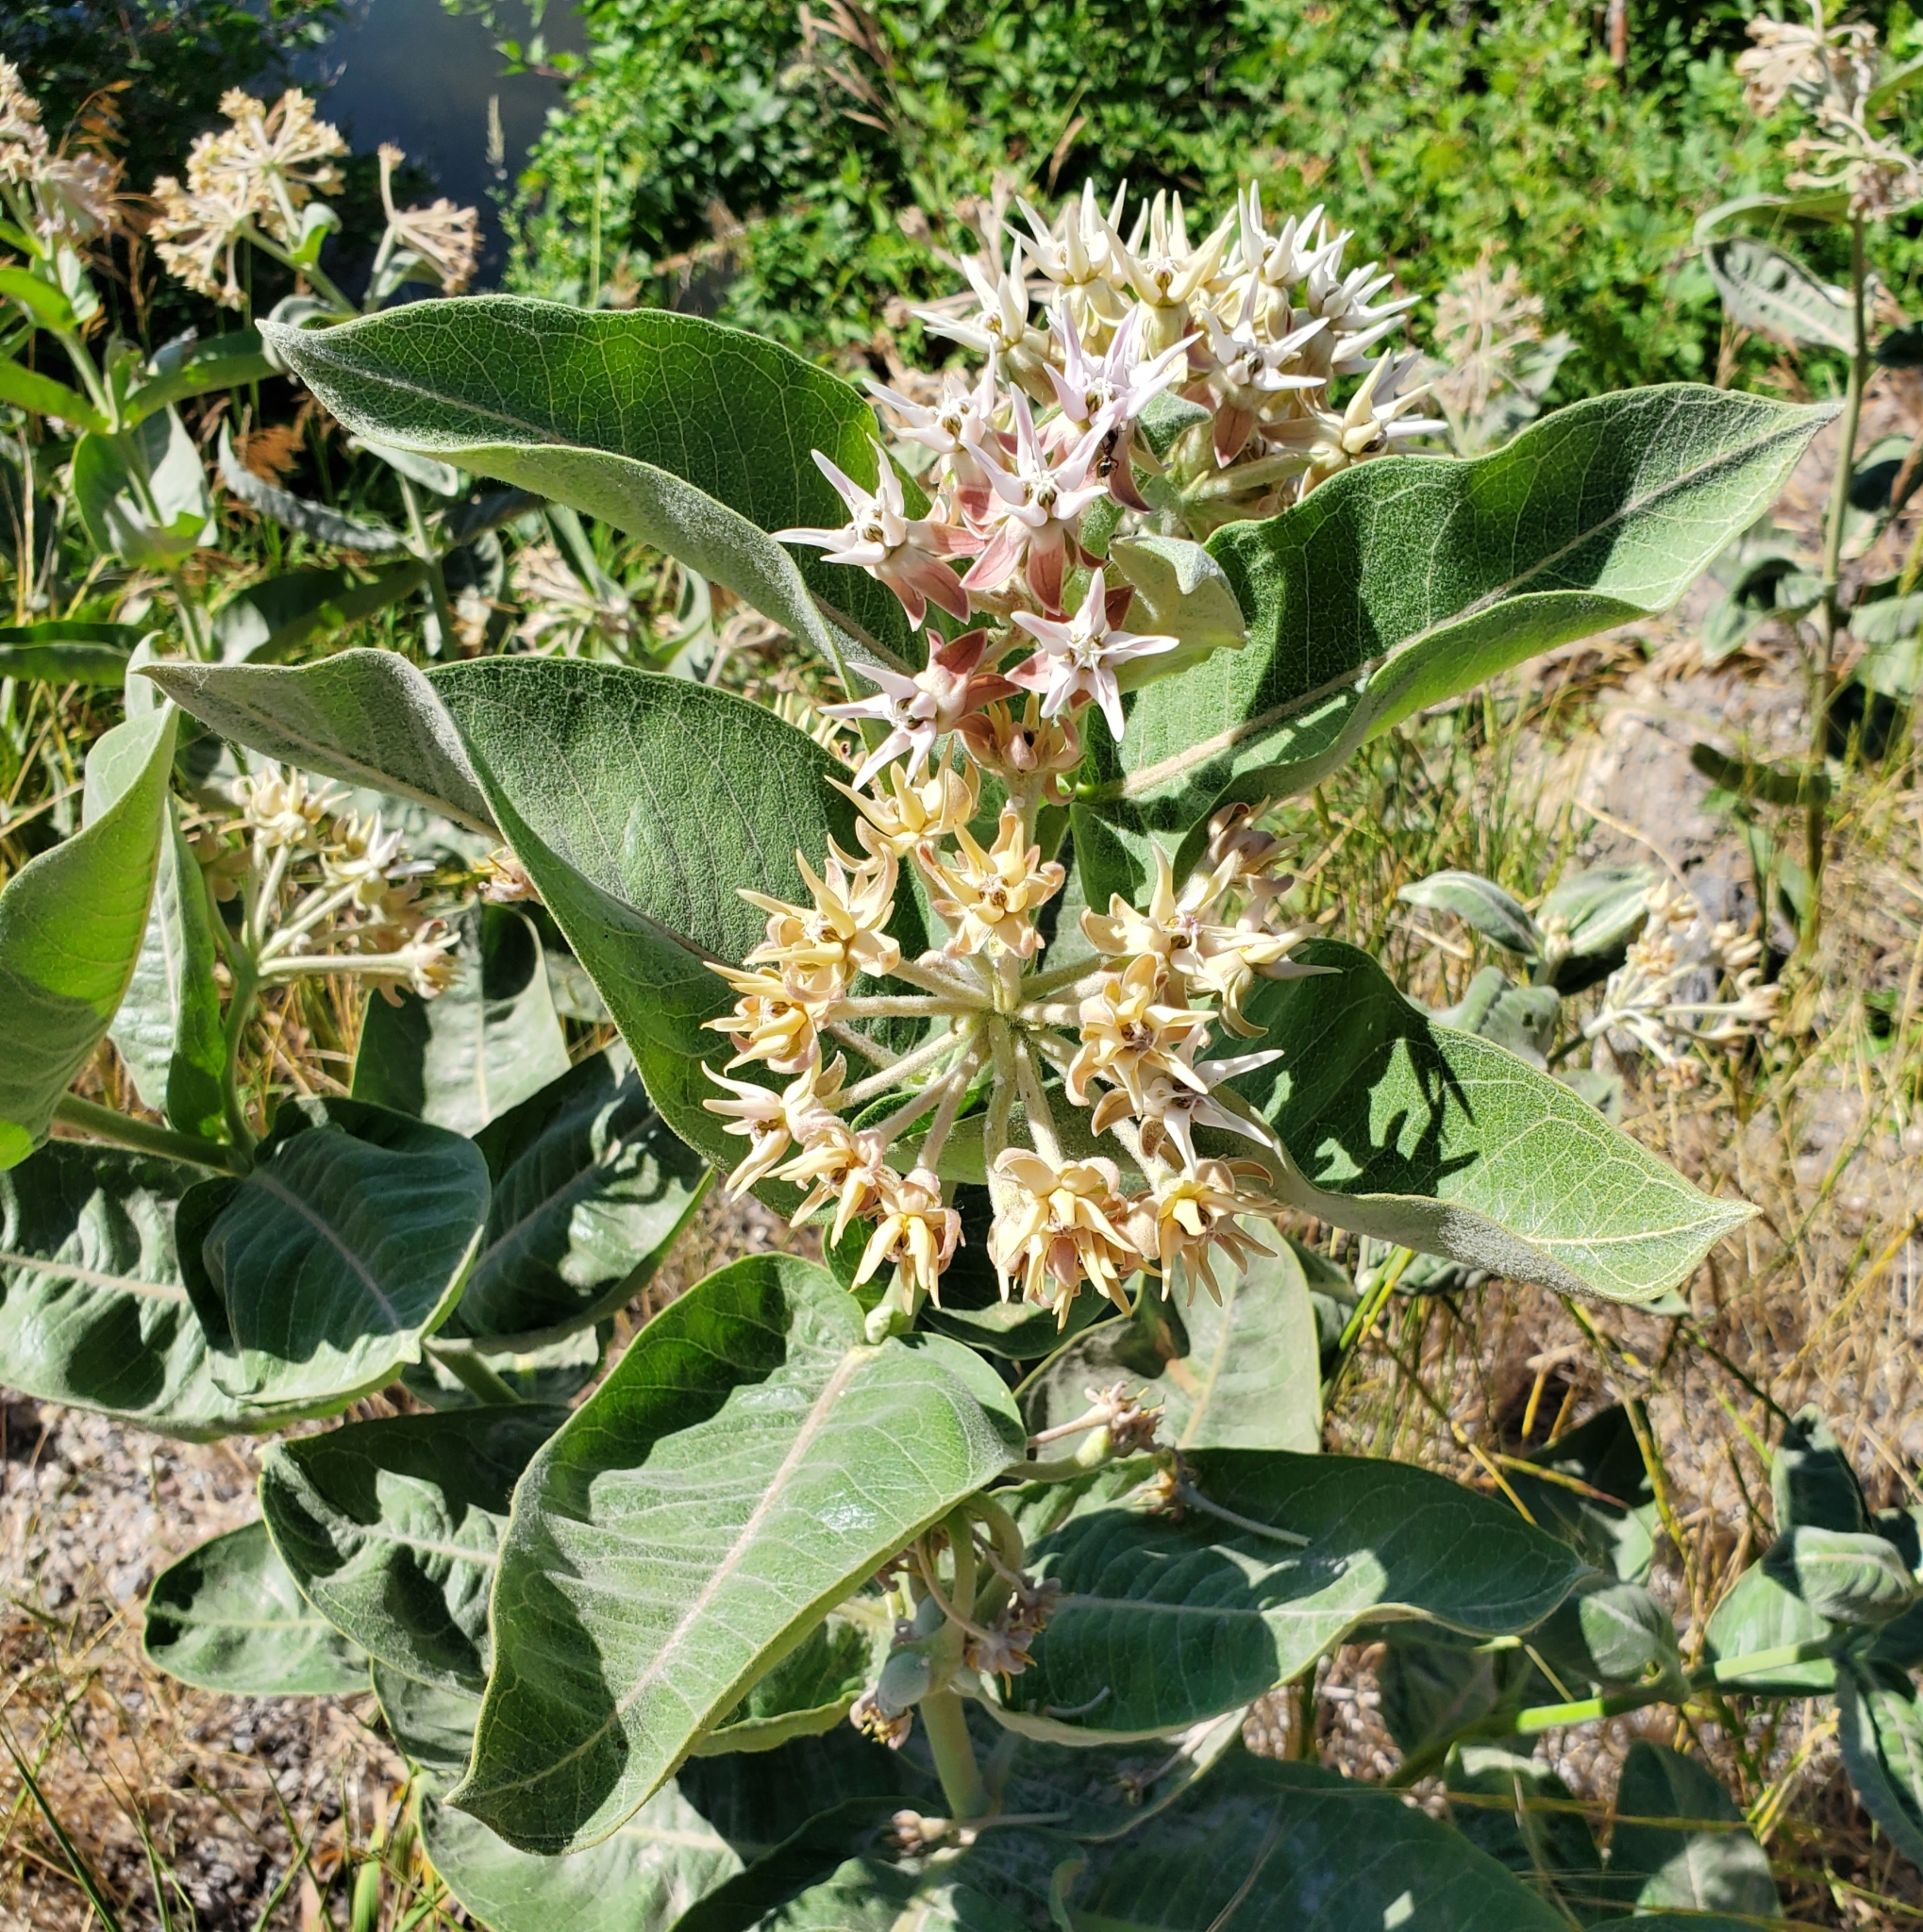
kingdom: Plantae
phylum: Tracheophyta
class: Magnoliopsida
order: Gentianales
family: Apocynaceae
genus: Asclepias
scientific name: Asclepias speciosa
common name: Showy milkweed
